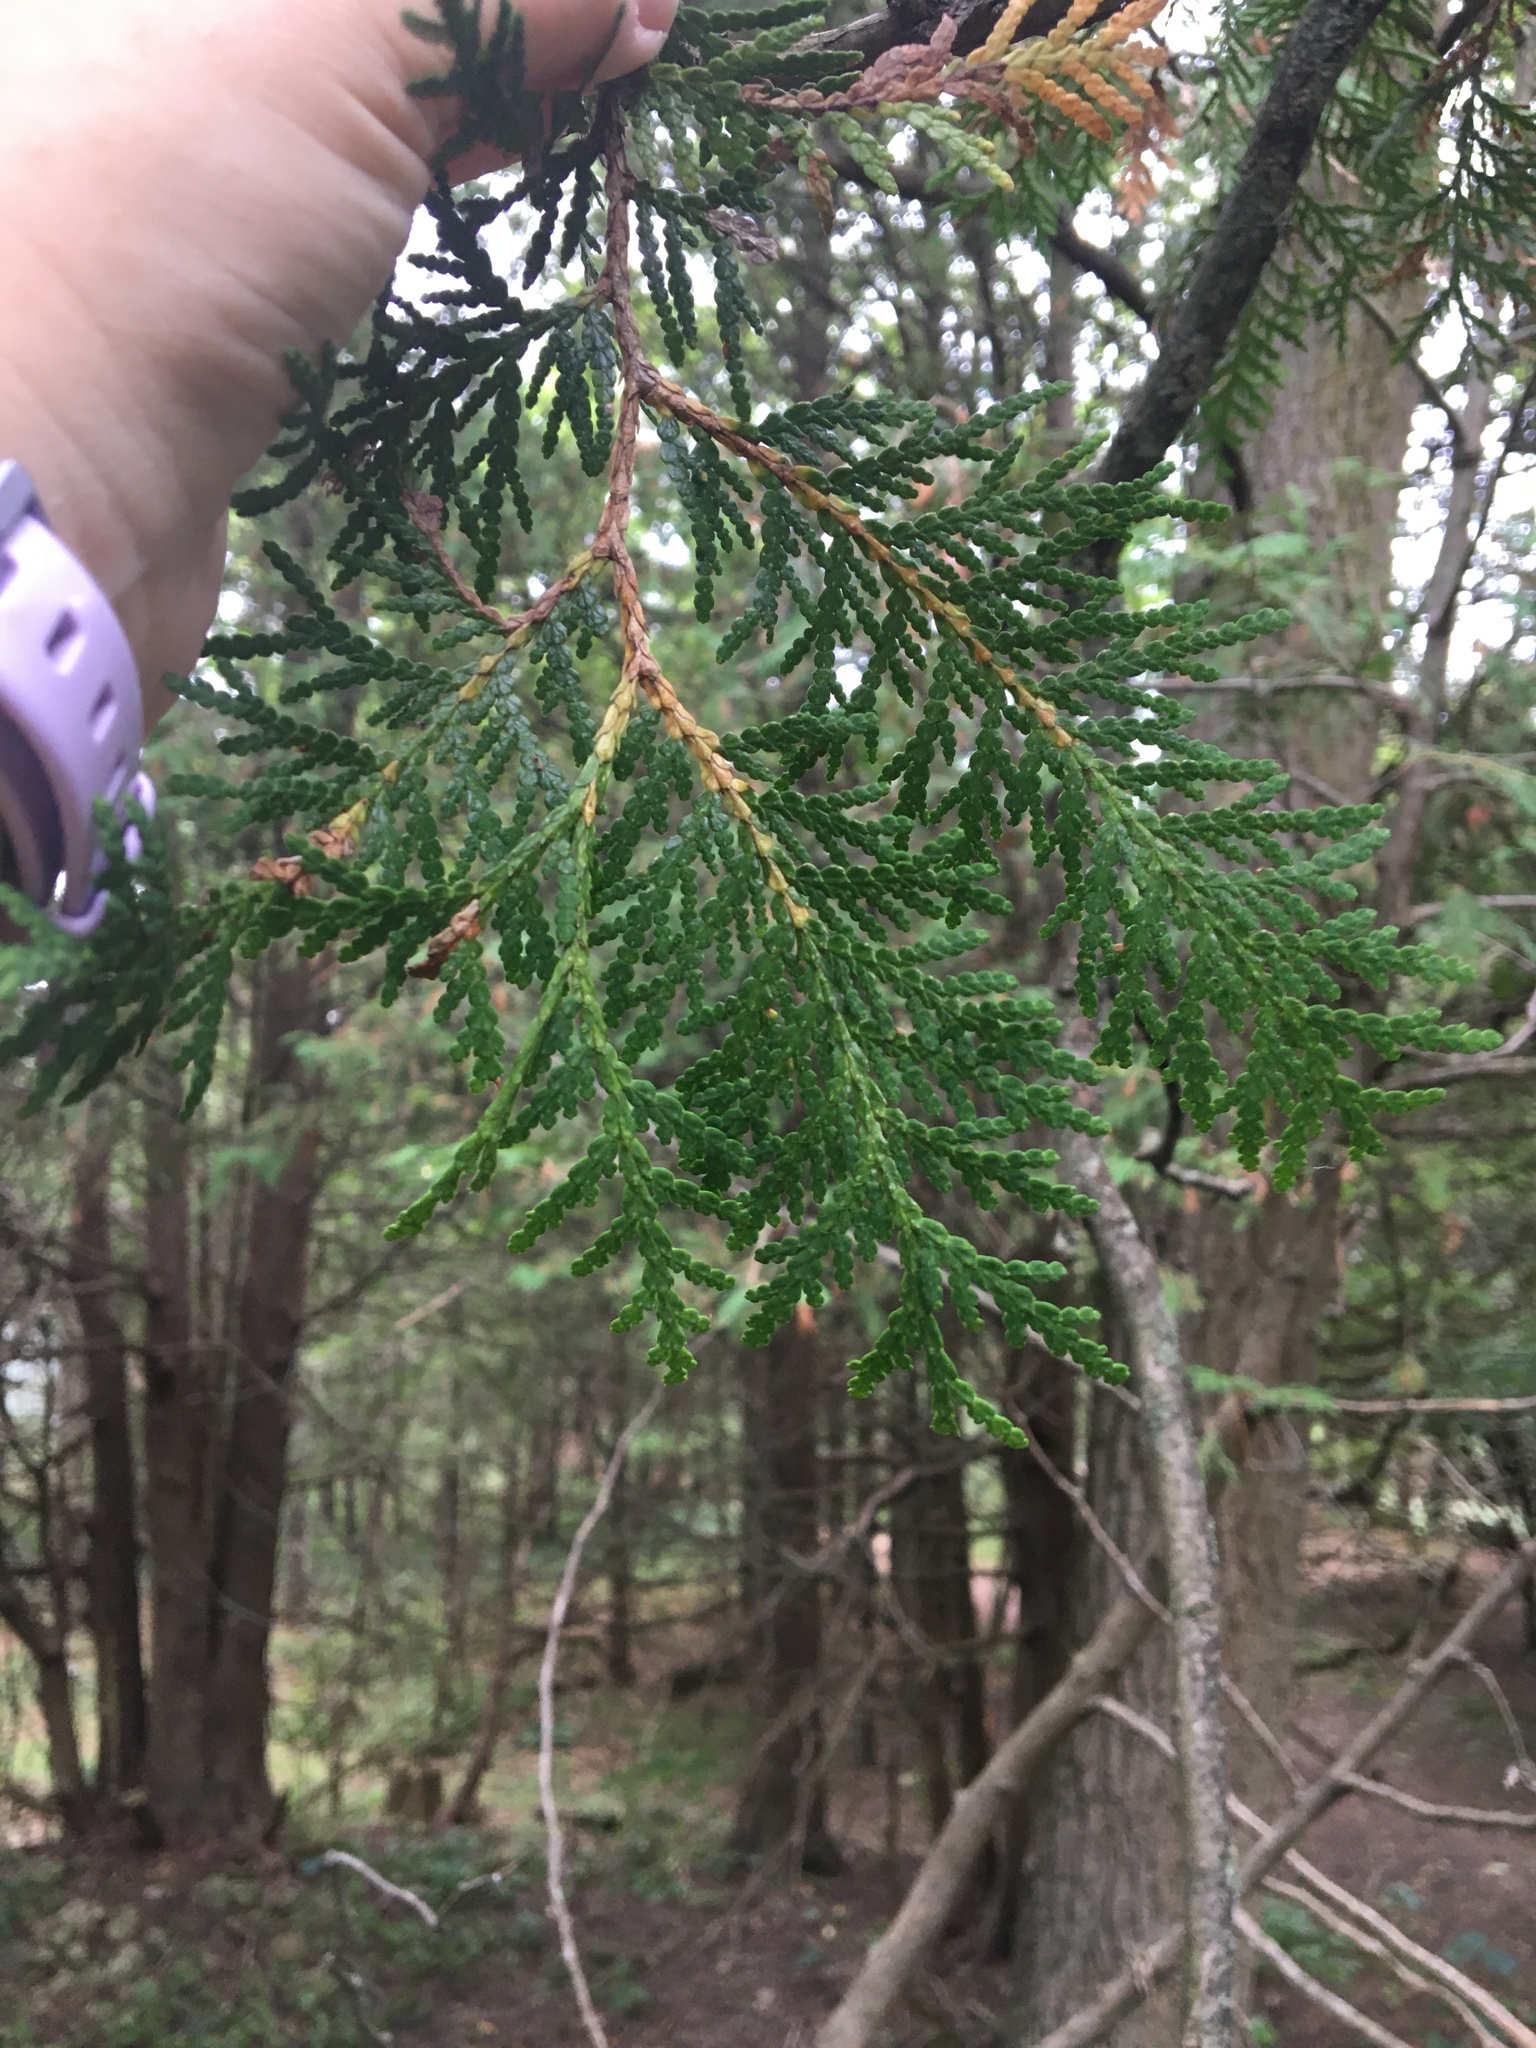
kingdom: Plantae
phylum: Tracheophyta
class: Pinopsida
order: Pinales
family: Cupressaceae
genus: Thuja
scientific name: Thuja occidentalis
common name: Northern white-cedar
